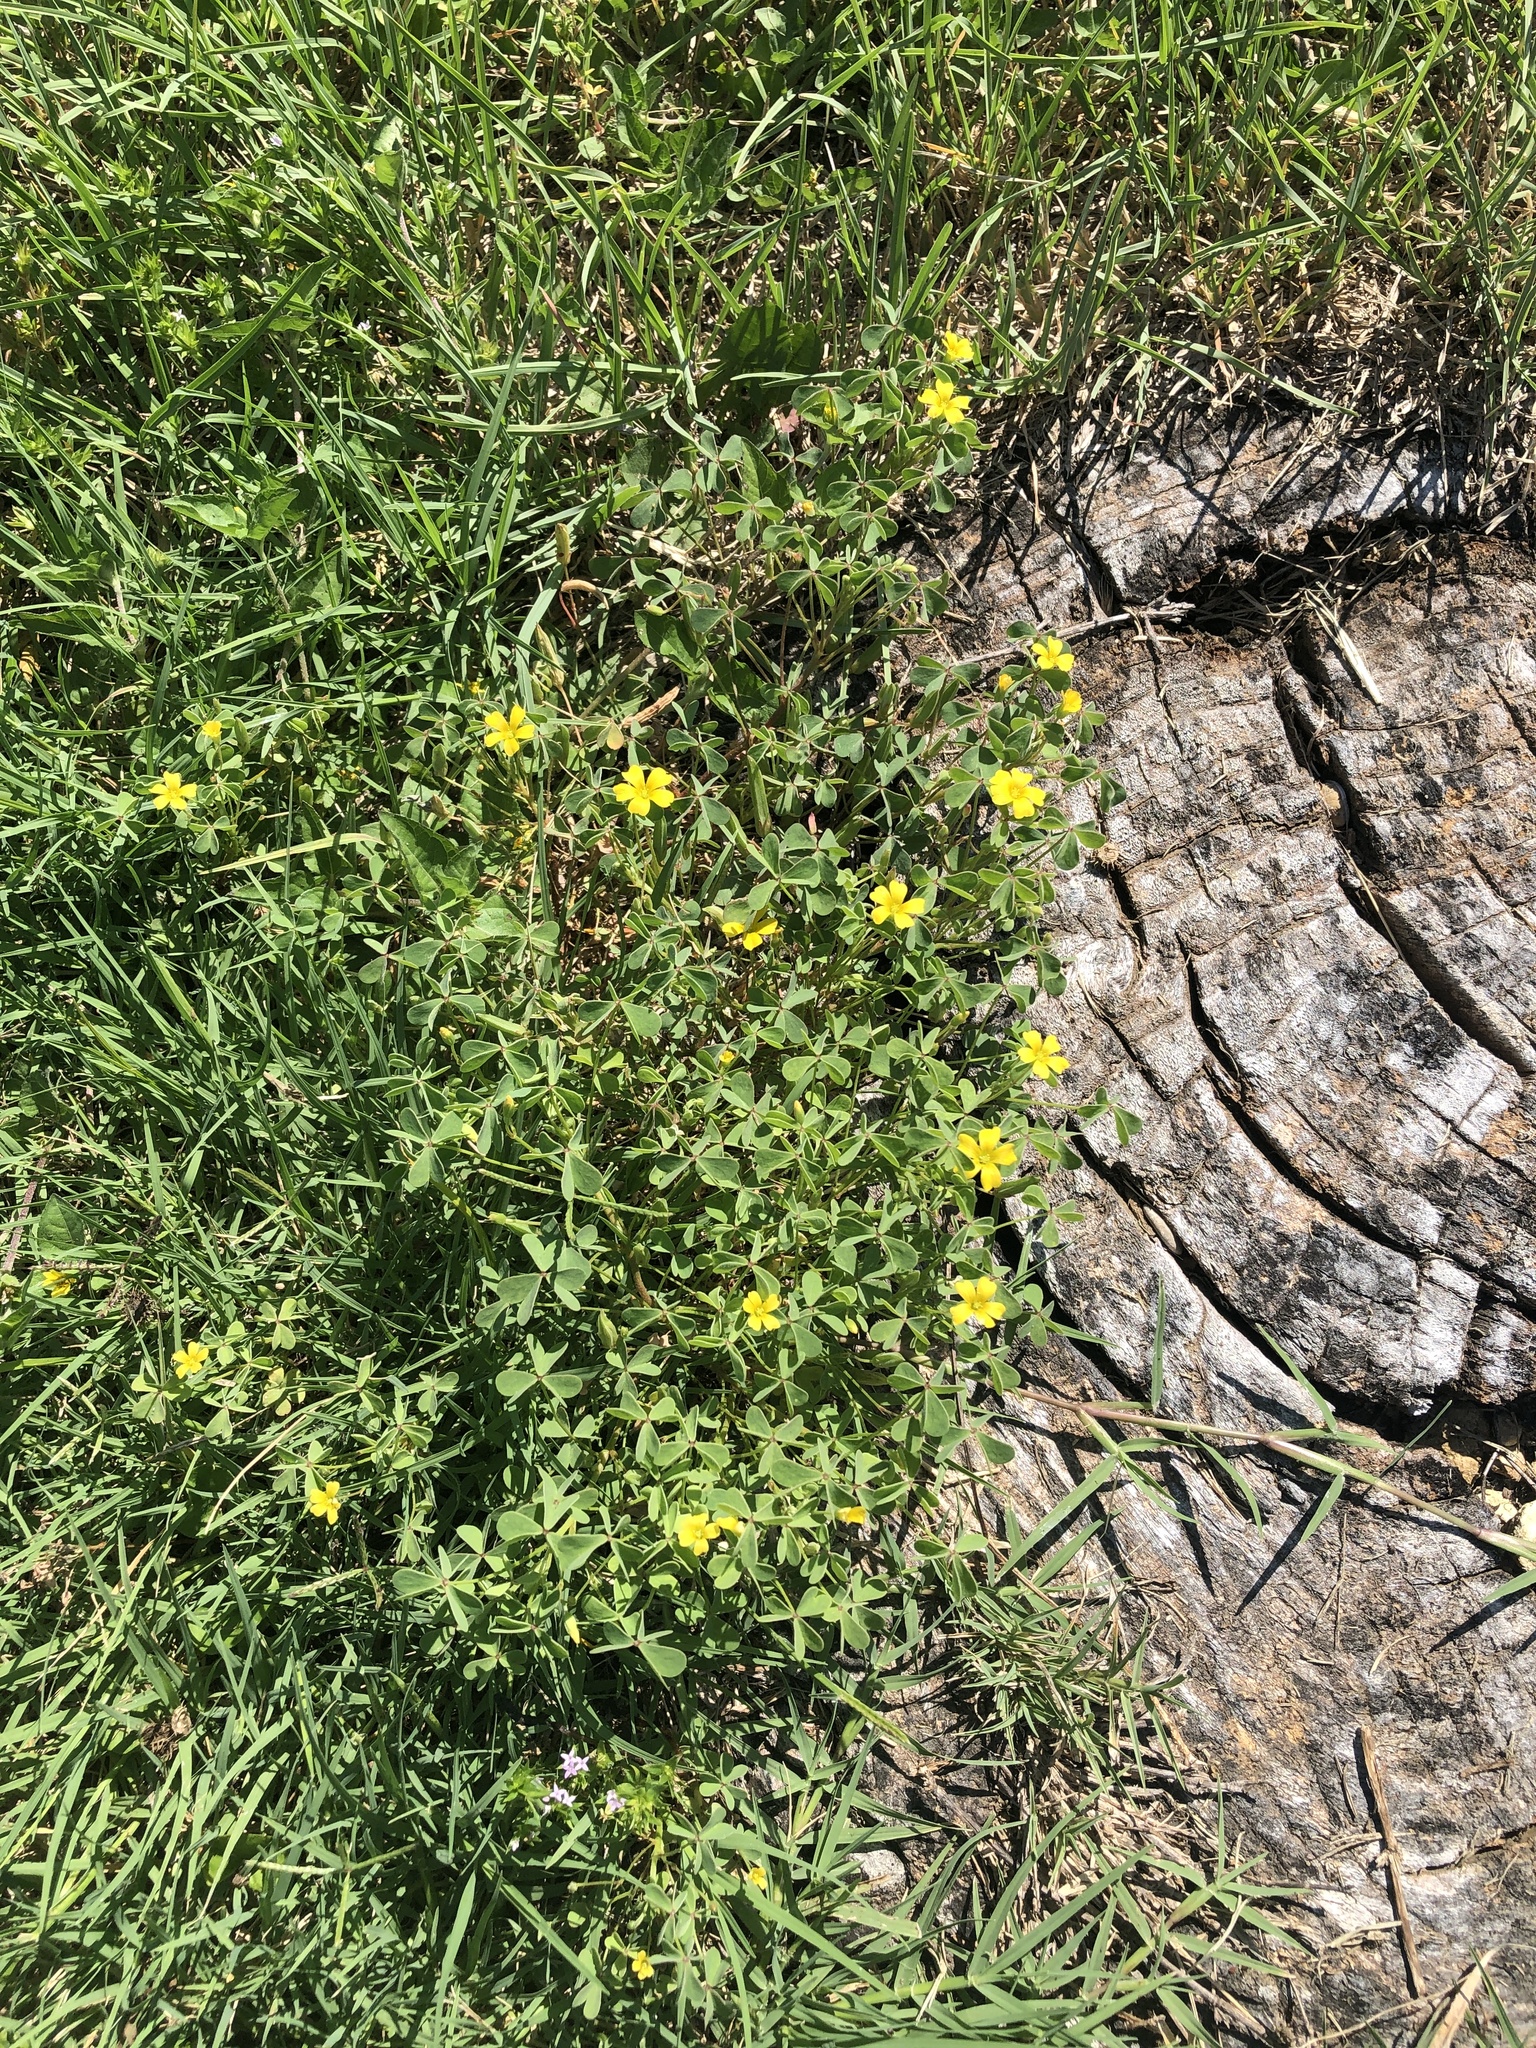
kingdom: Plantae
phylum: Tracheophyta
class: Magnoliopsida
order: Oxalidales
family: Oxalidaceae
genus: Oxalis
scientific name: Oxalis dillenii
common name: Sussex yellow-sorrel
